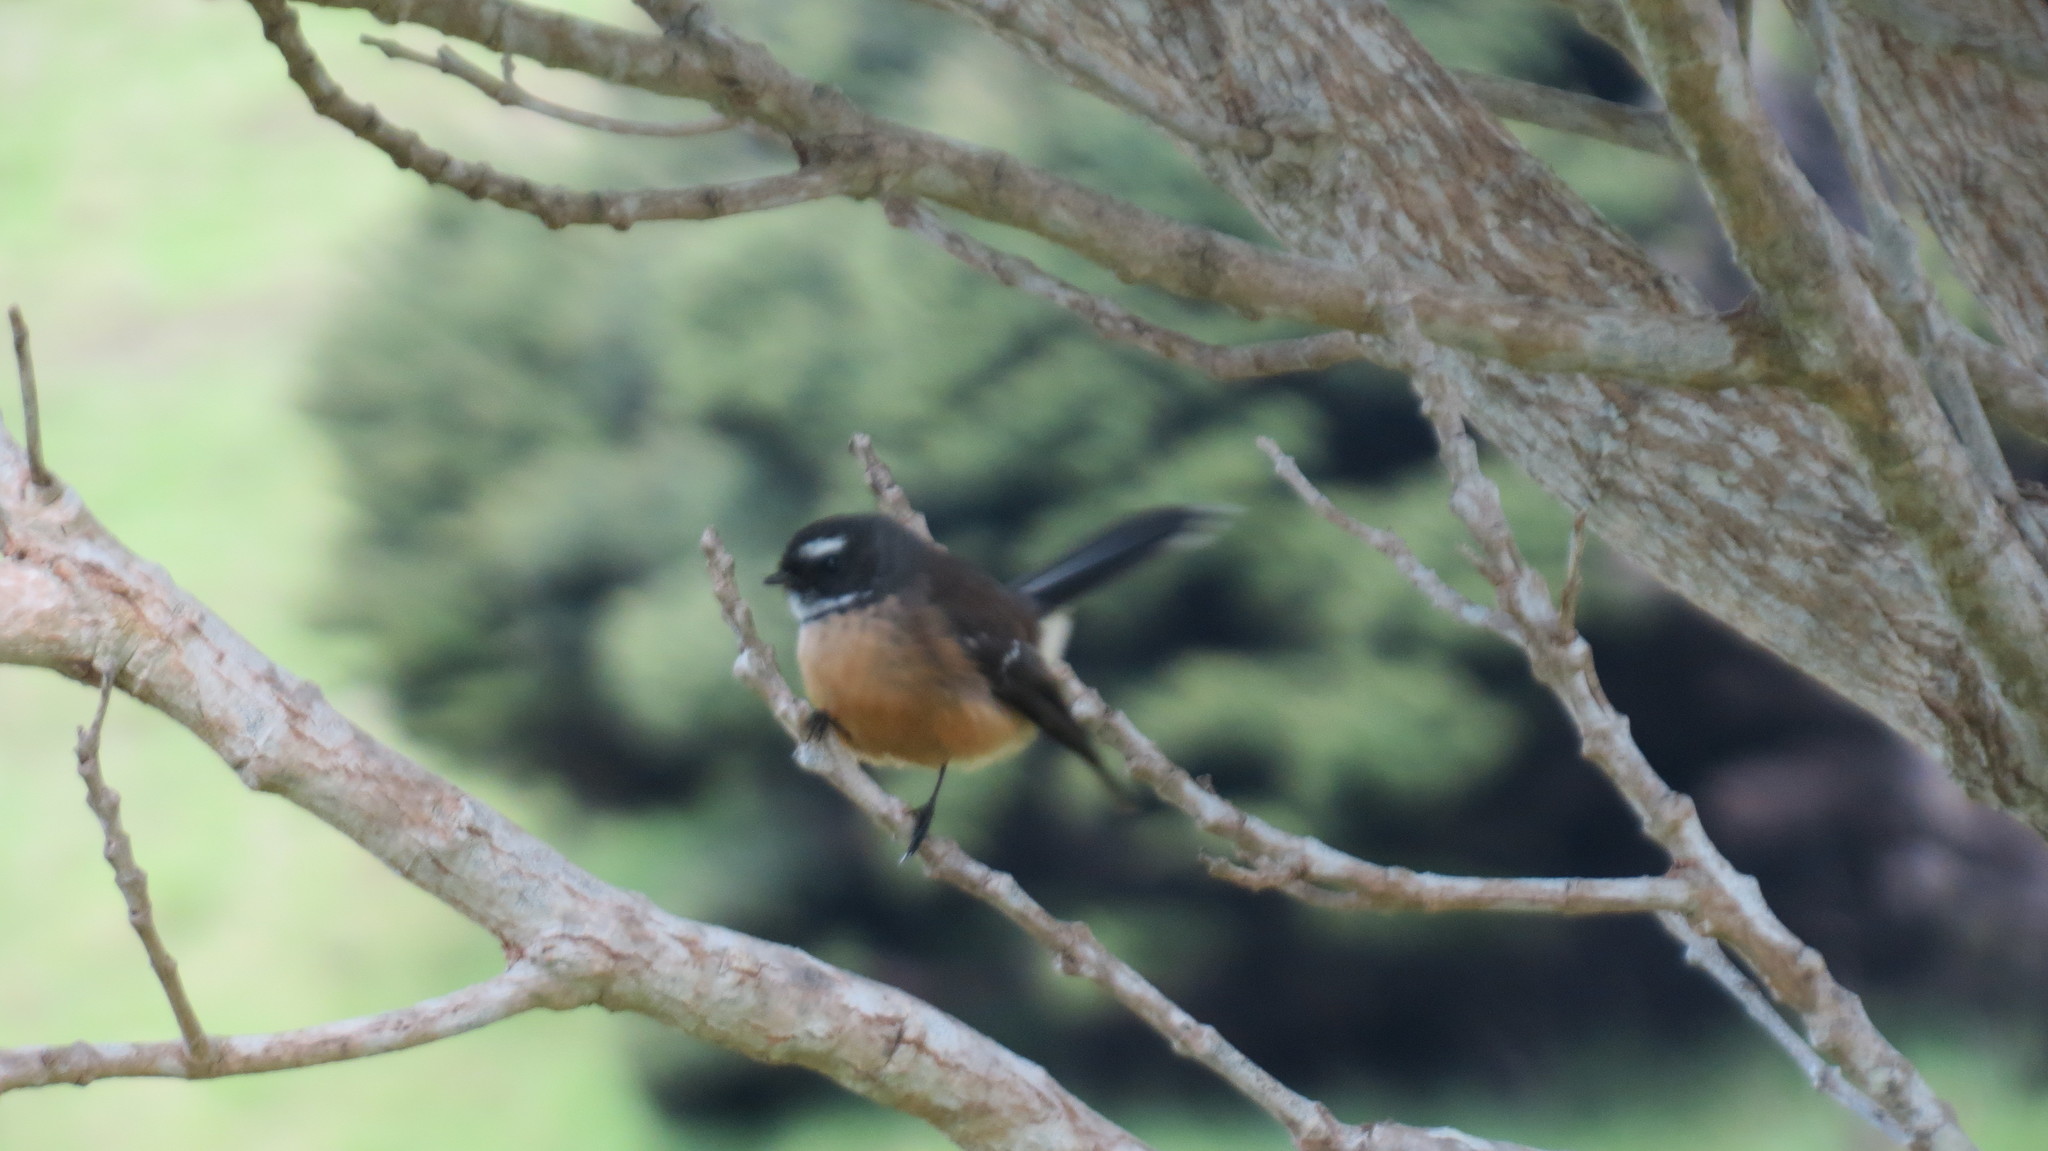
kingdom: Animalia
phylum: Chordata
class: Aves
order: Passeriformes
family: Rhipiduridae
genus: Rhipidura
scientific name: Rhipidura fuliginosa
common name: New zealand fantail
